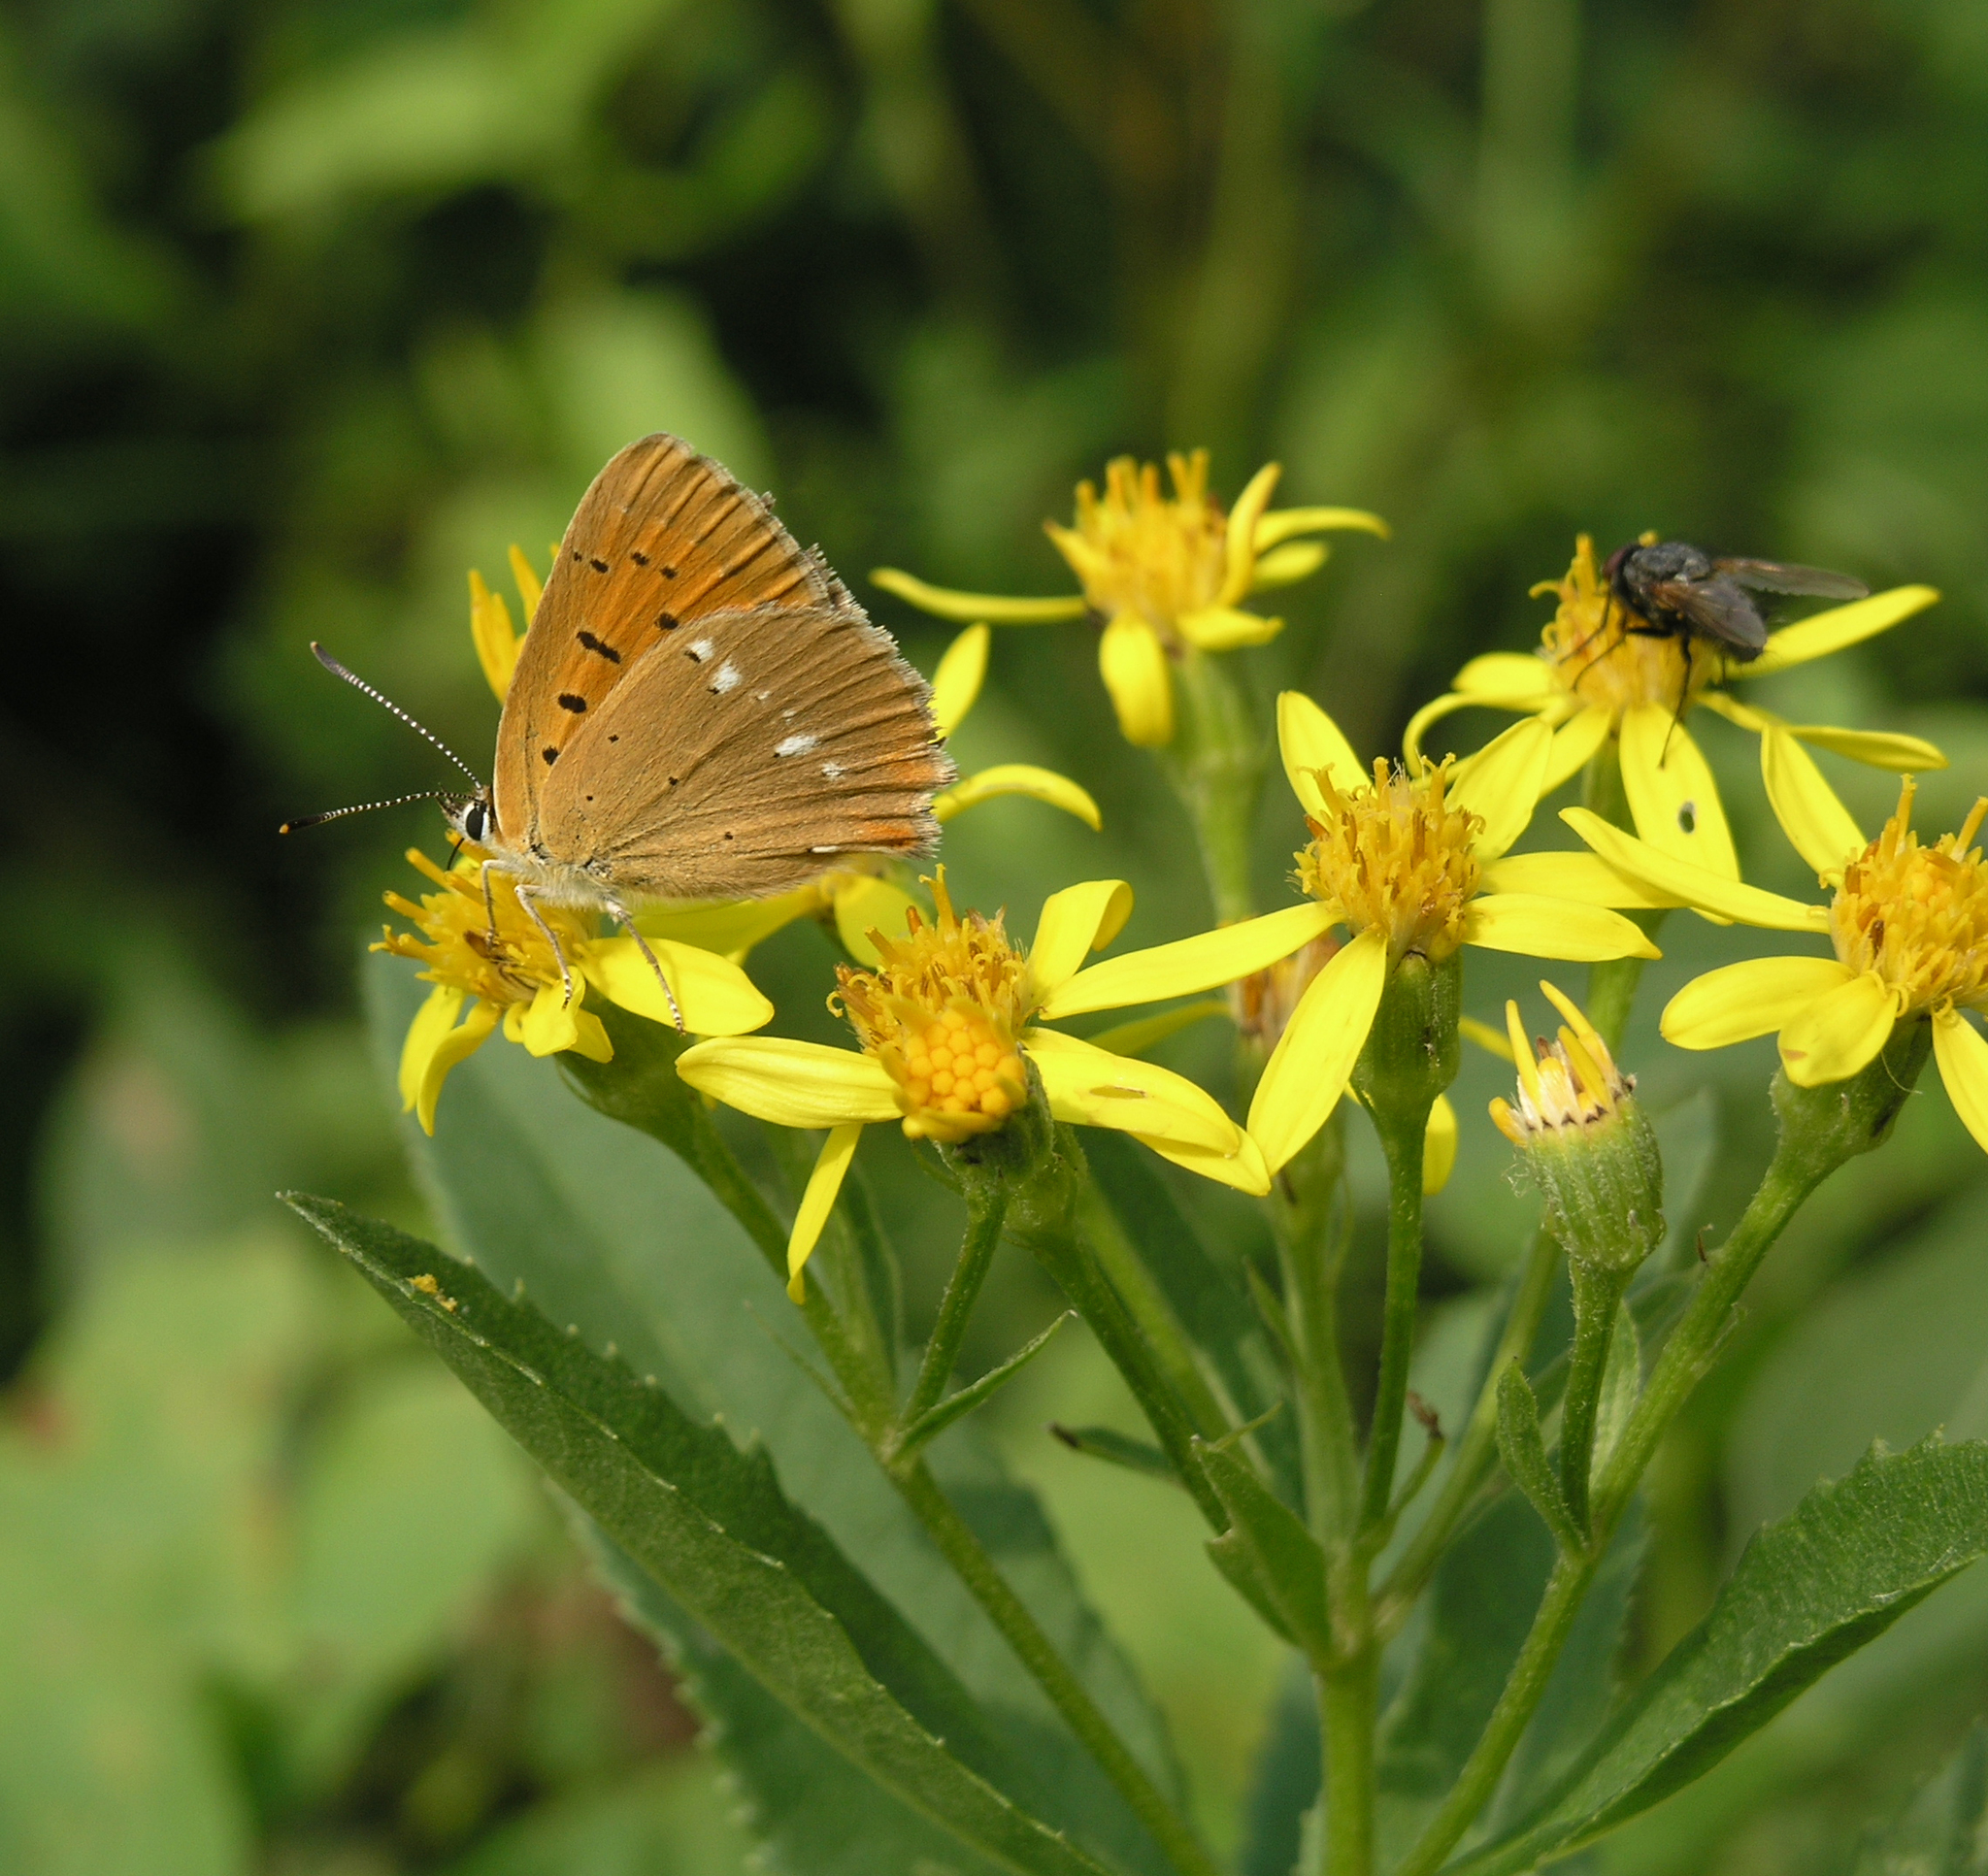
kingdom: Plantae
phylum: Tracheophyta
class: Magnoliopsida
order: Asterales
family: Asteraceae
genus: Senecio
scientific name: Senecio sarracenicus
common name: Broad-leaved ragwort
